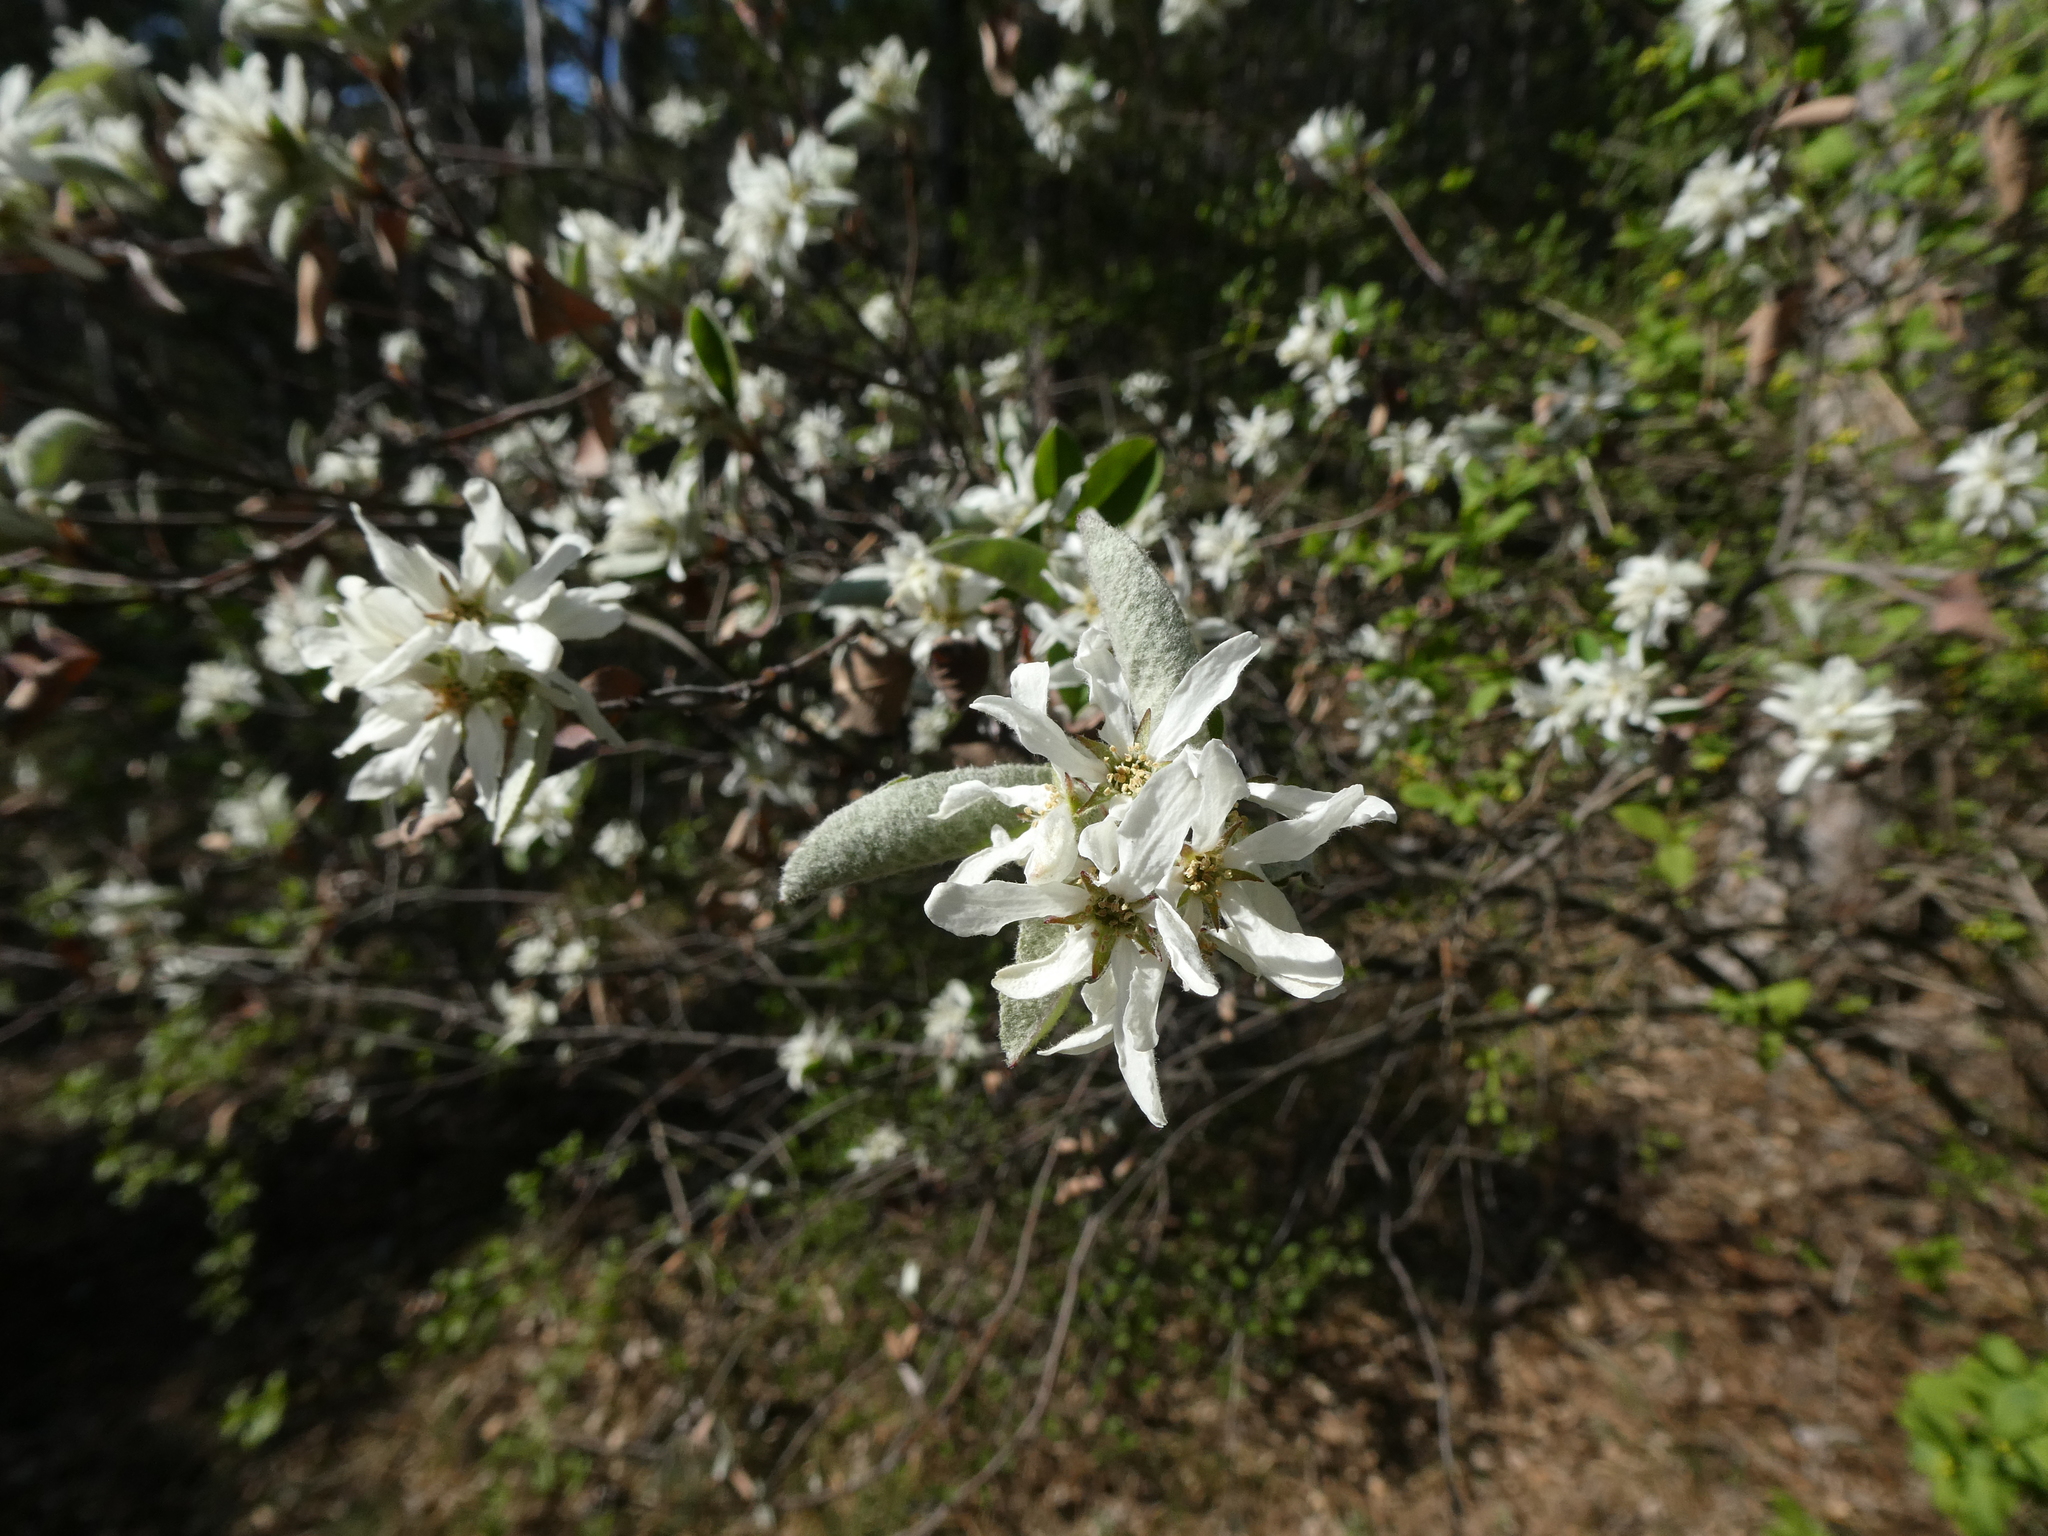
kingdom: Plantae
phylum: Tracheophyta
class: Magnoliopsida
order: Rosales
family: Rosaceae
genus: Amelanchier
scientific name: Amelanchier ovalis
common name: Serviceberry
